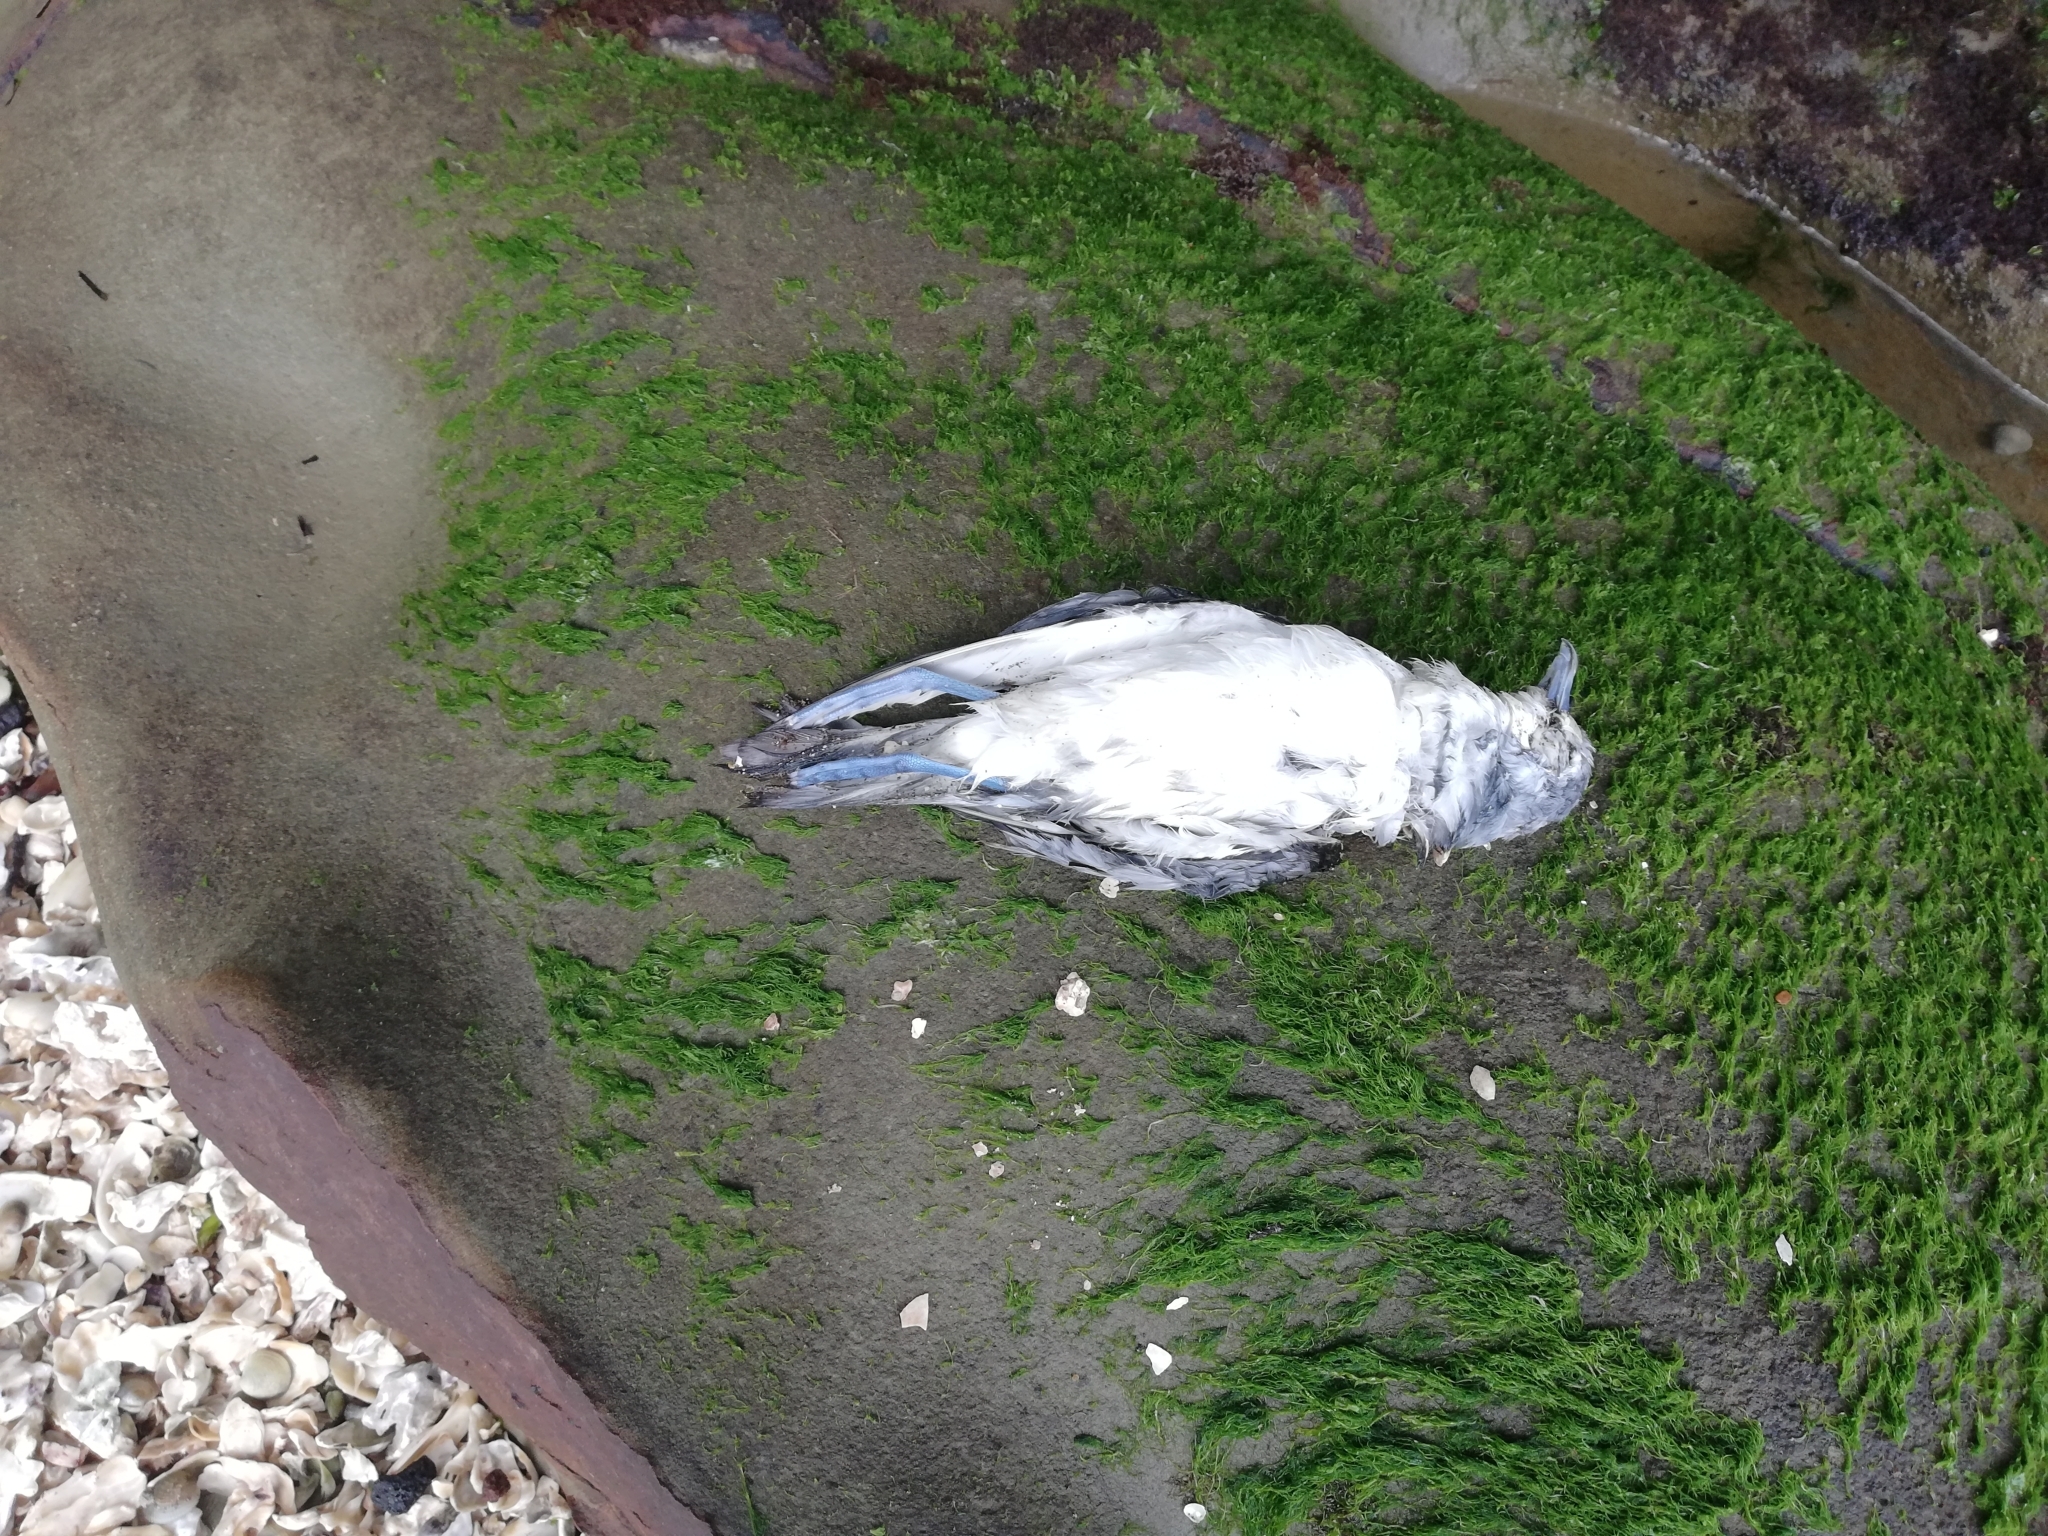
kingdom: Animalia
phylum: Chordata
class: Aves
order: Procellariiformes
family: Procellariidae
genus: Pachyptila
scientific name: Pachyptila turtur
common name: Fairy prion
